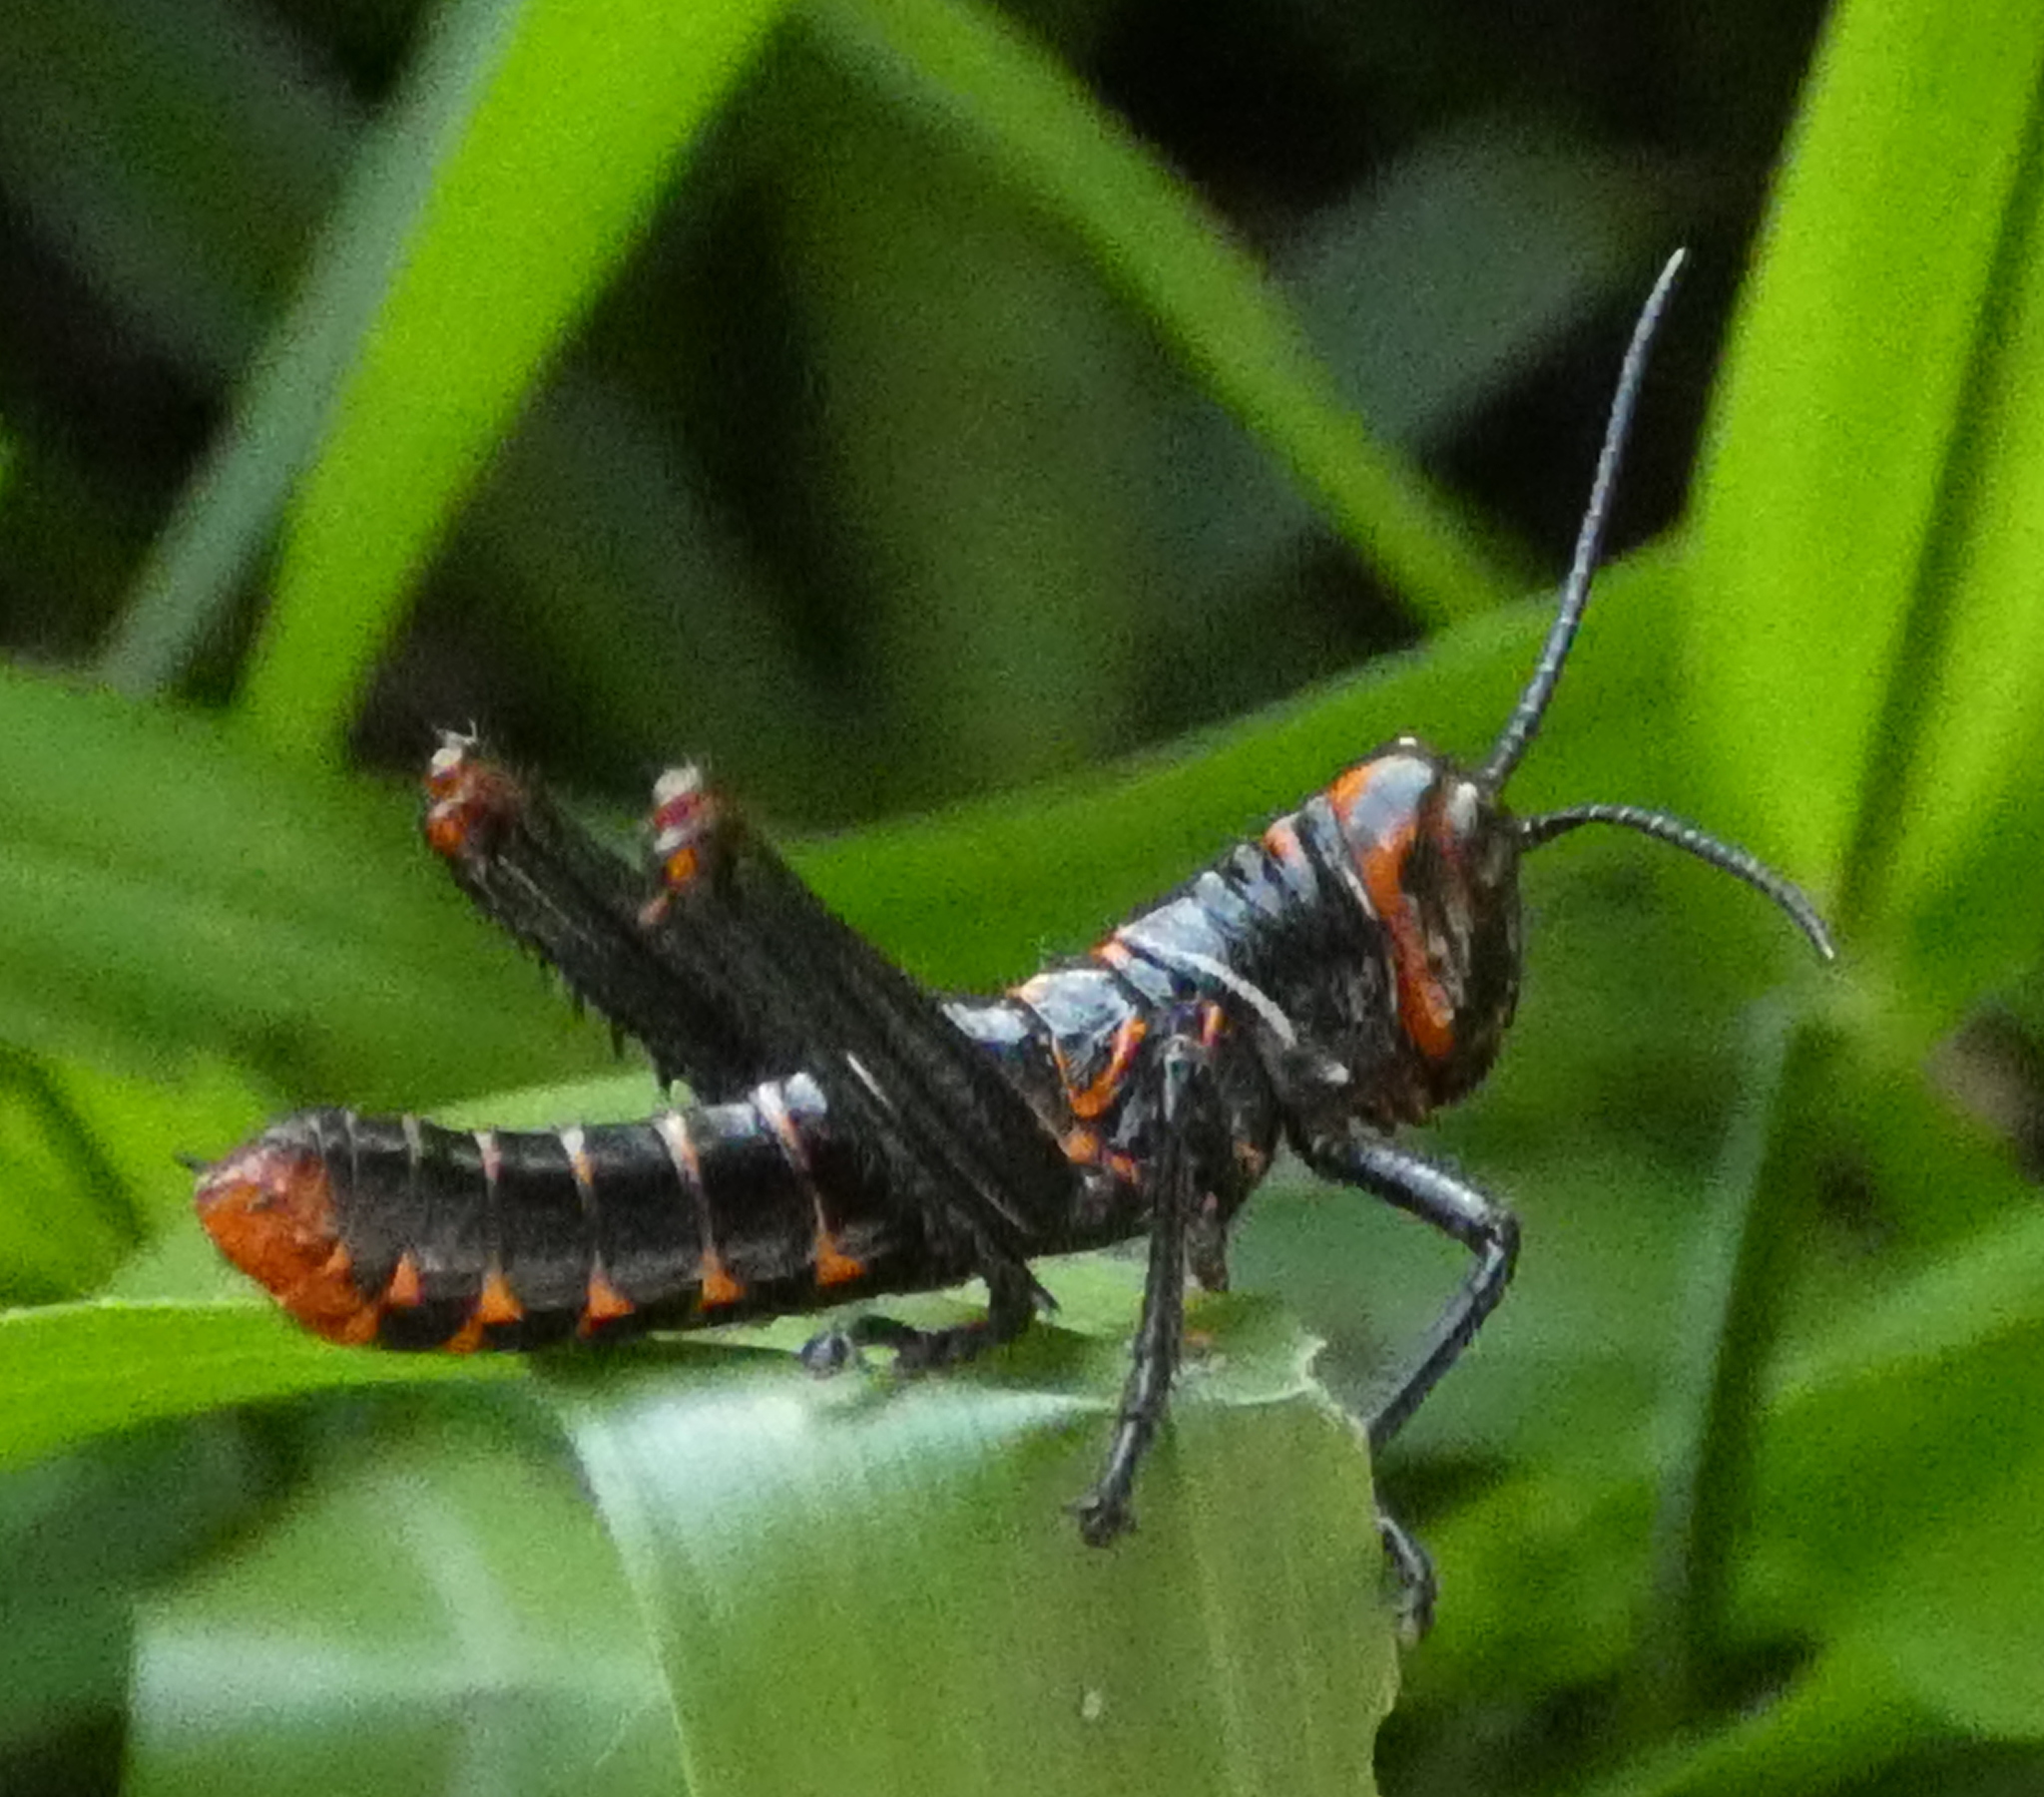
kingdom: Animalia
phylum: Arthropoda
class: Insecta
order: Orthoptera
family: Romaleidae
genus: Tropidacris
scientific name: Tropidacris collaris
